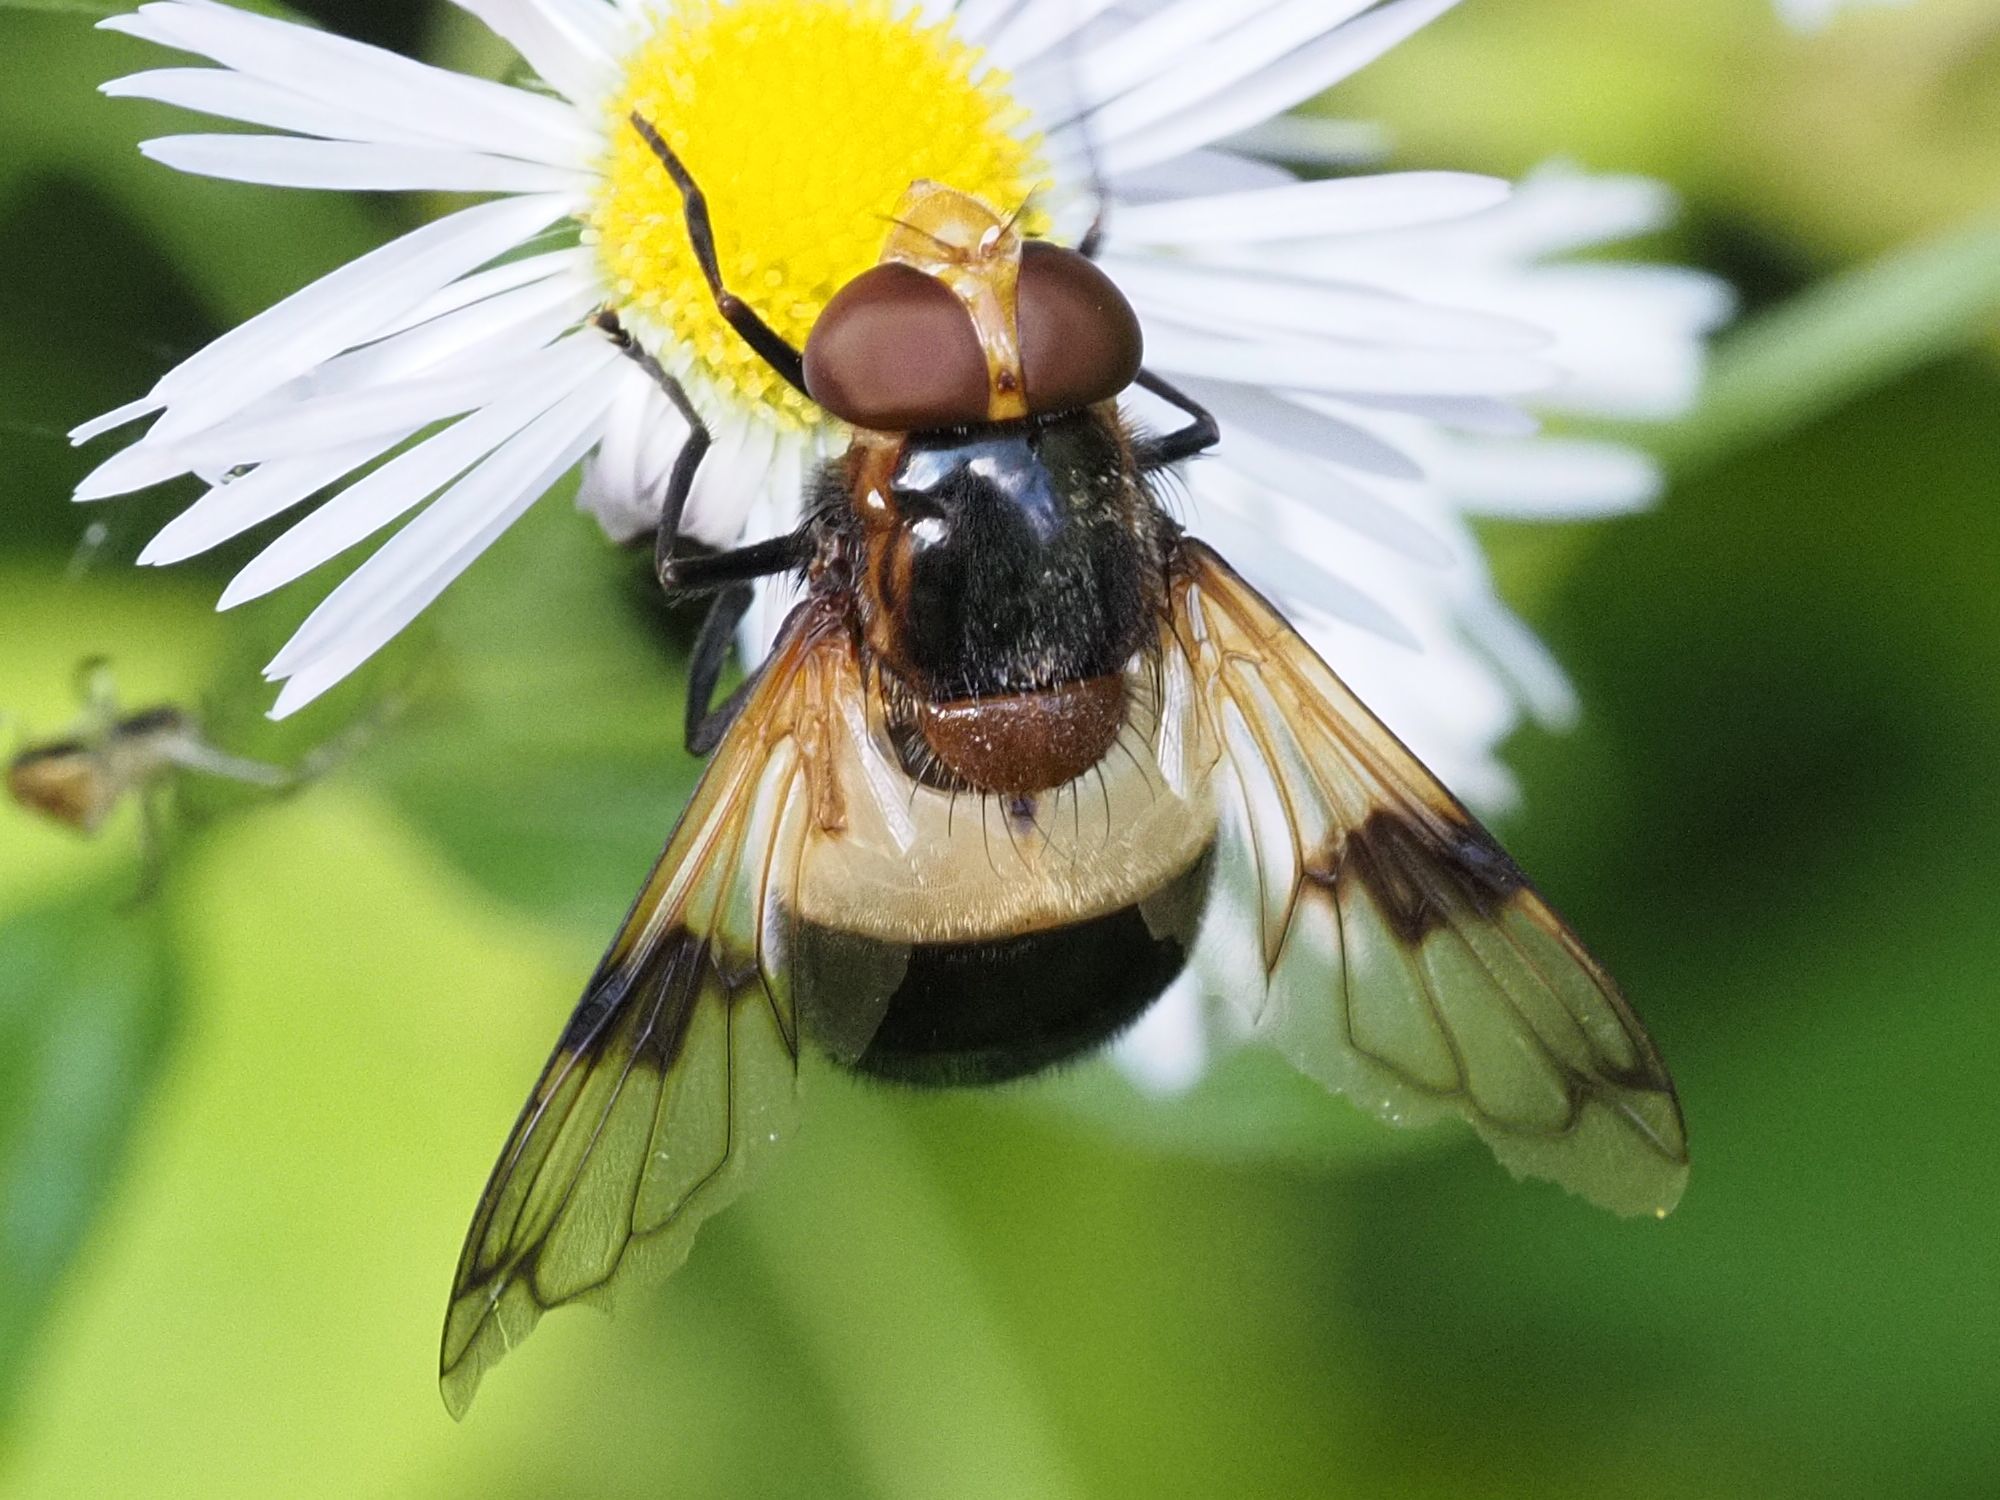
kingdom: Animalia
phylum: Arthropoda
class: Insecta
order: Diptera
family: Syrphidae
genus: Volucella
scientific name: Volucella pellucens
